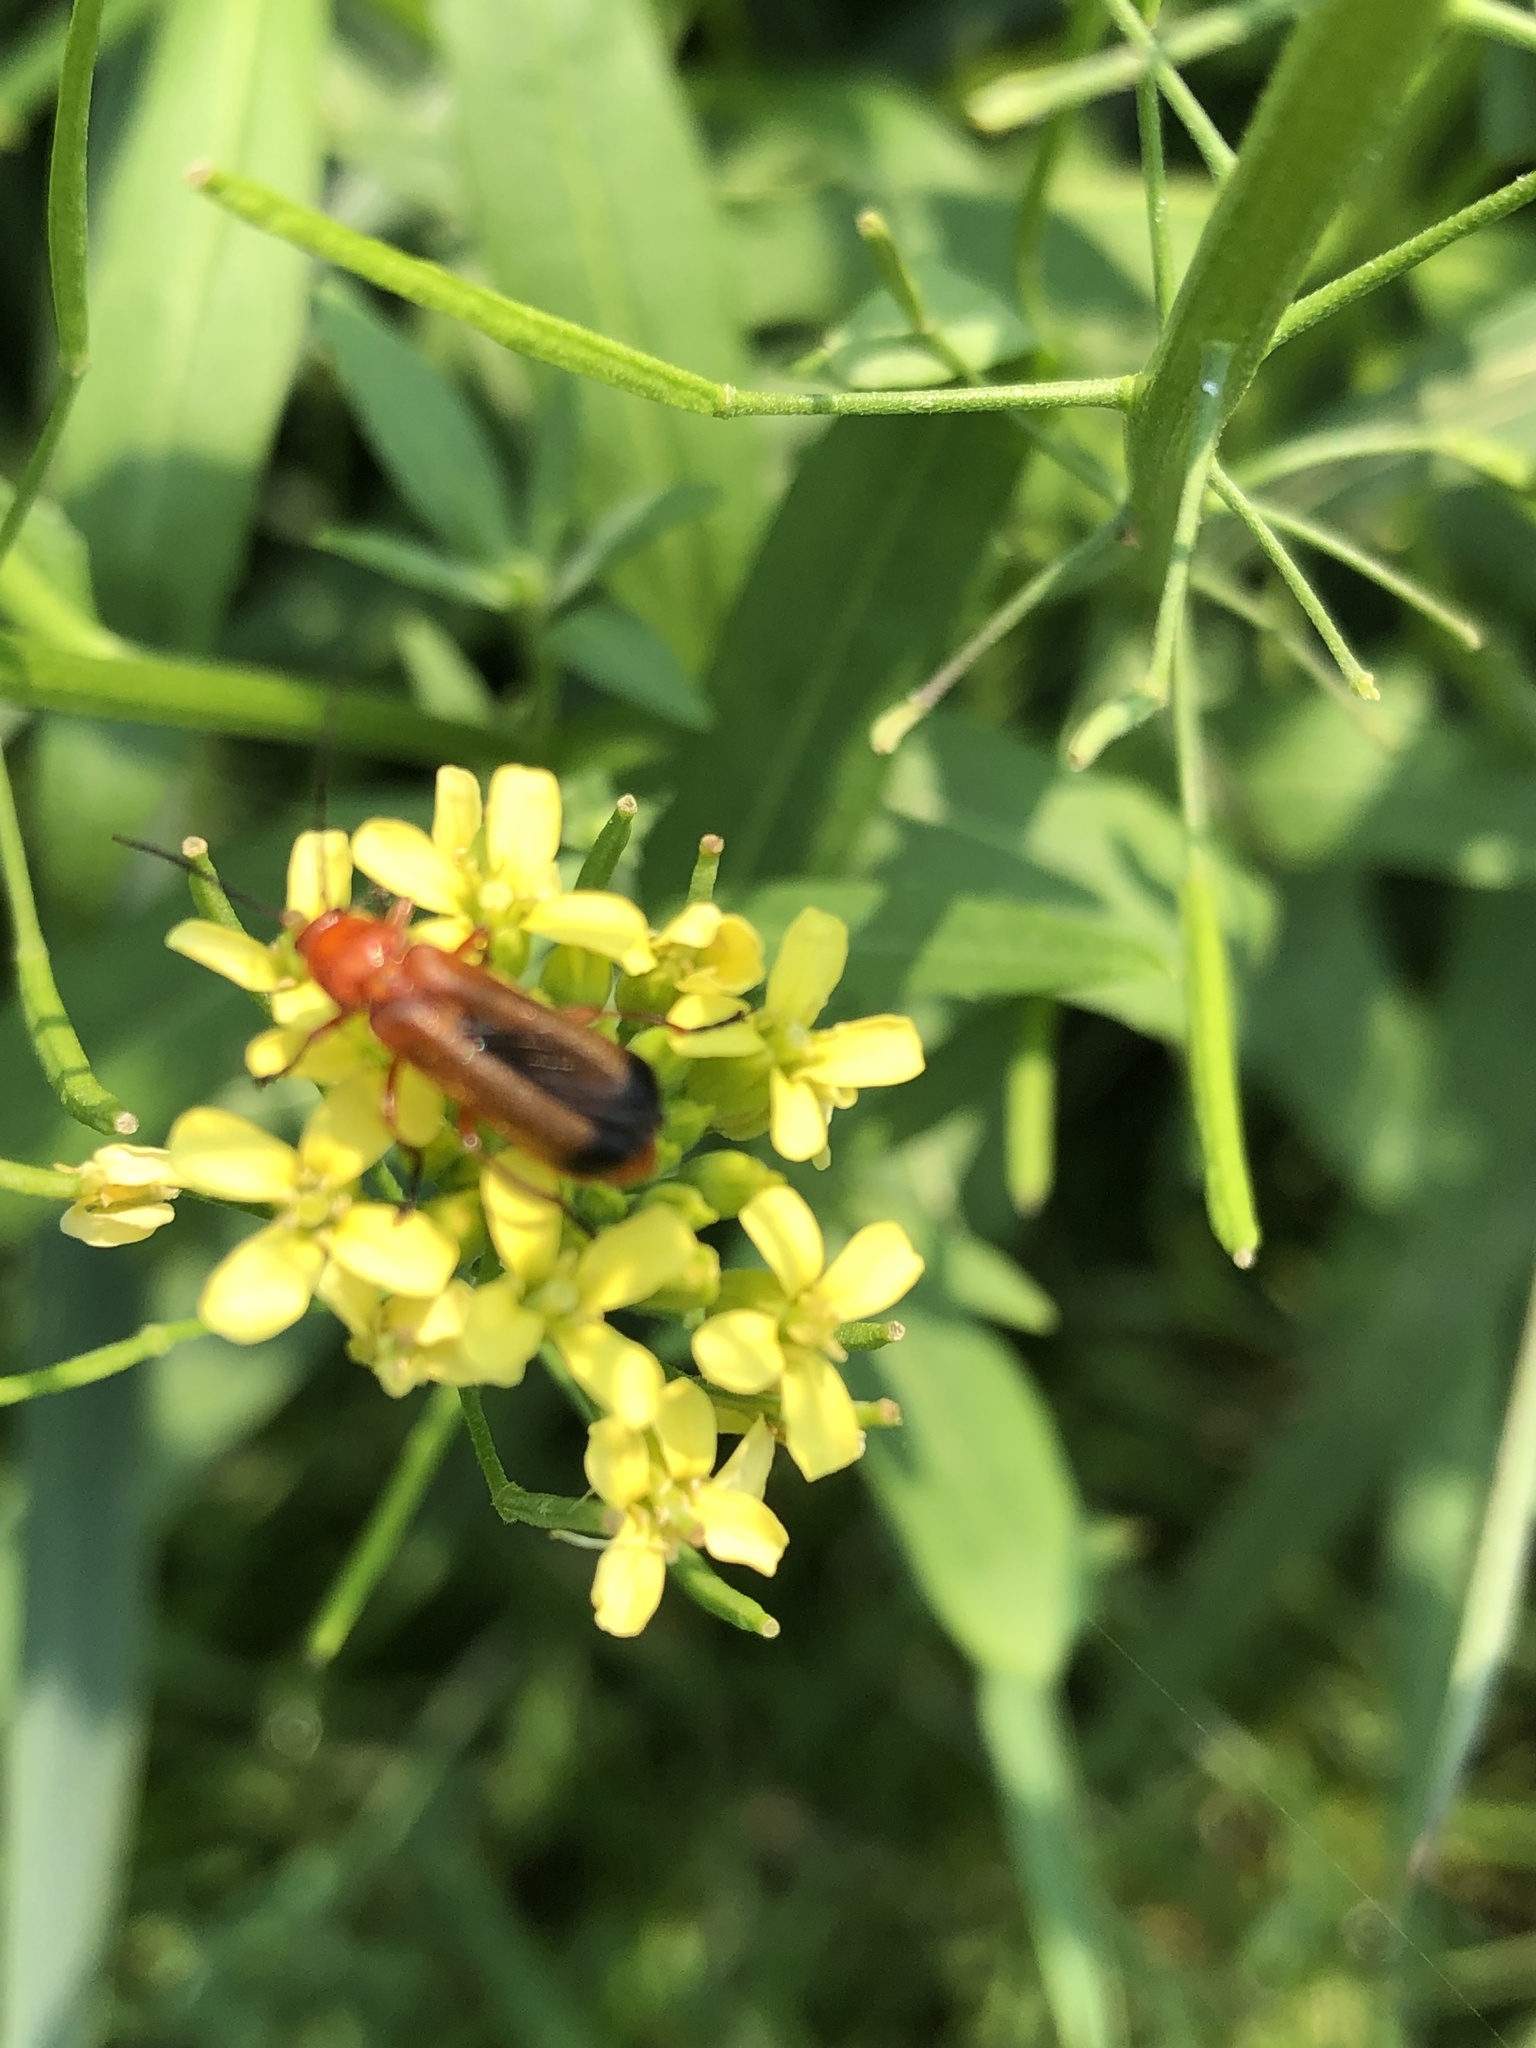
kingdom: Animalia
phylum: Arthropoda
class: Insecta
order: Coleoptera
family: Cantharidae
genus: Rhagonycha
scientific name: Rhagonycha fulva
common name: Common red soldier beetle
